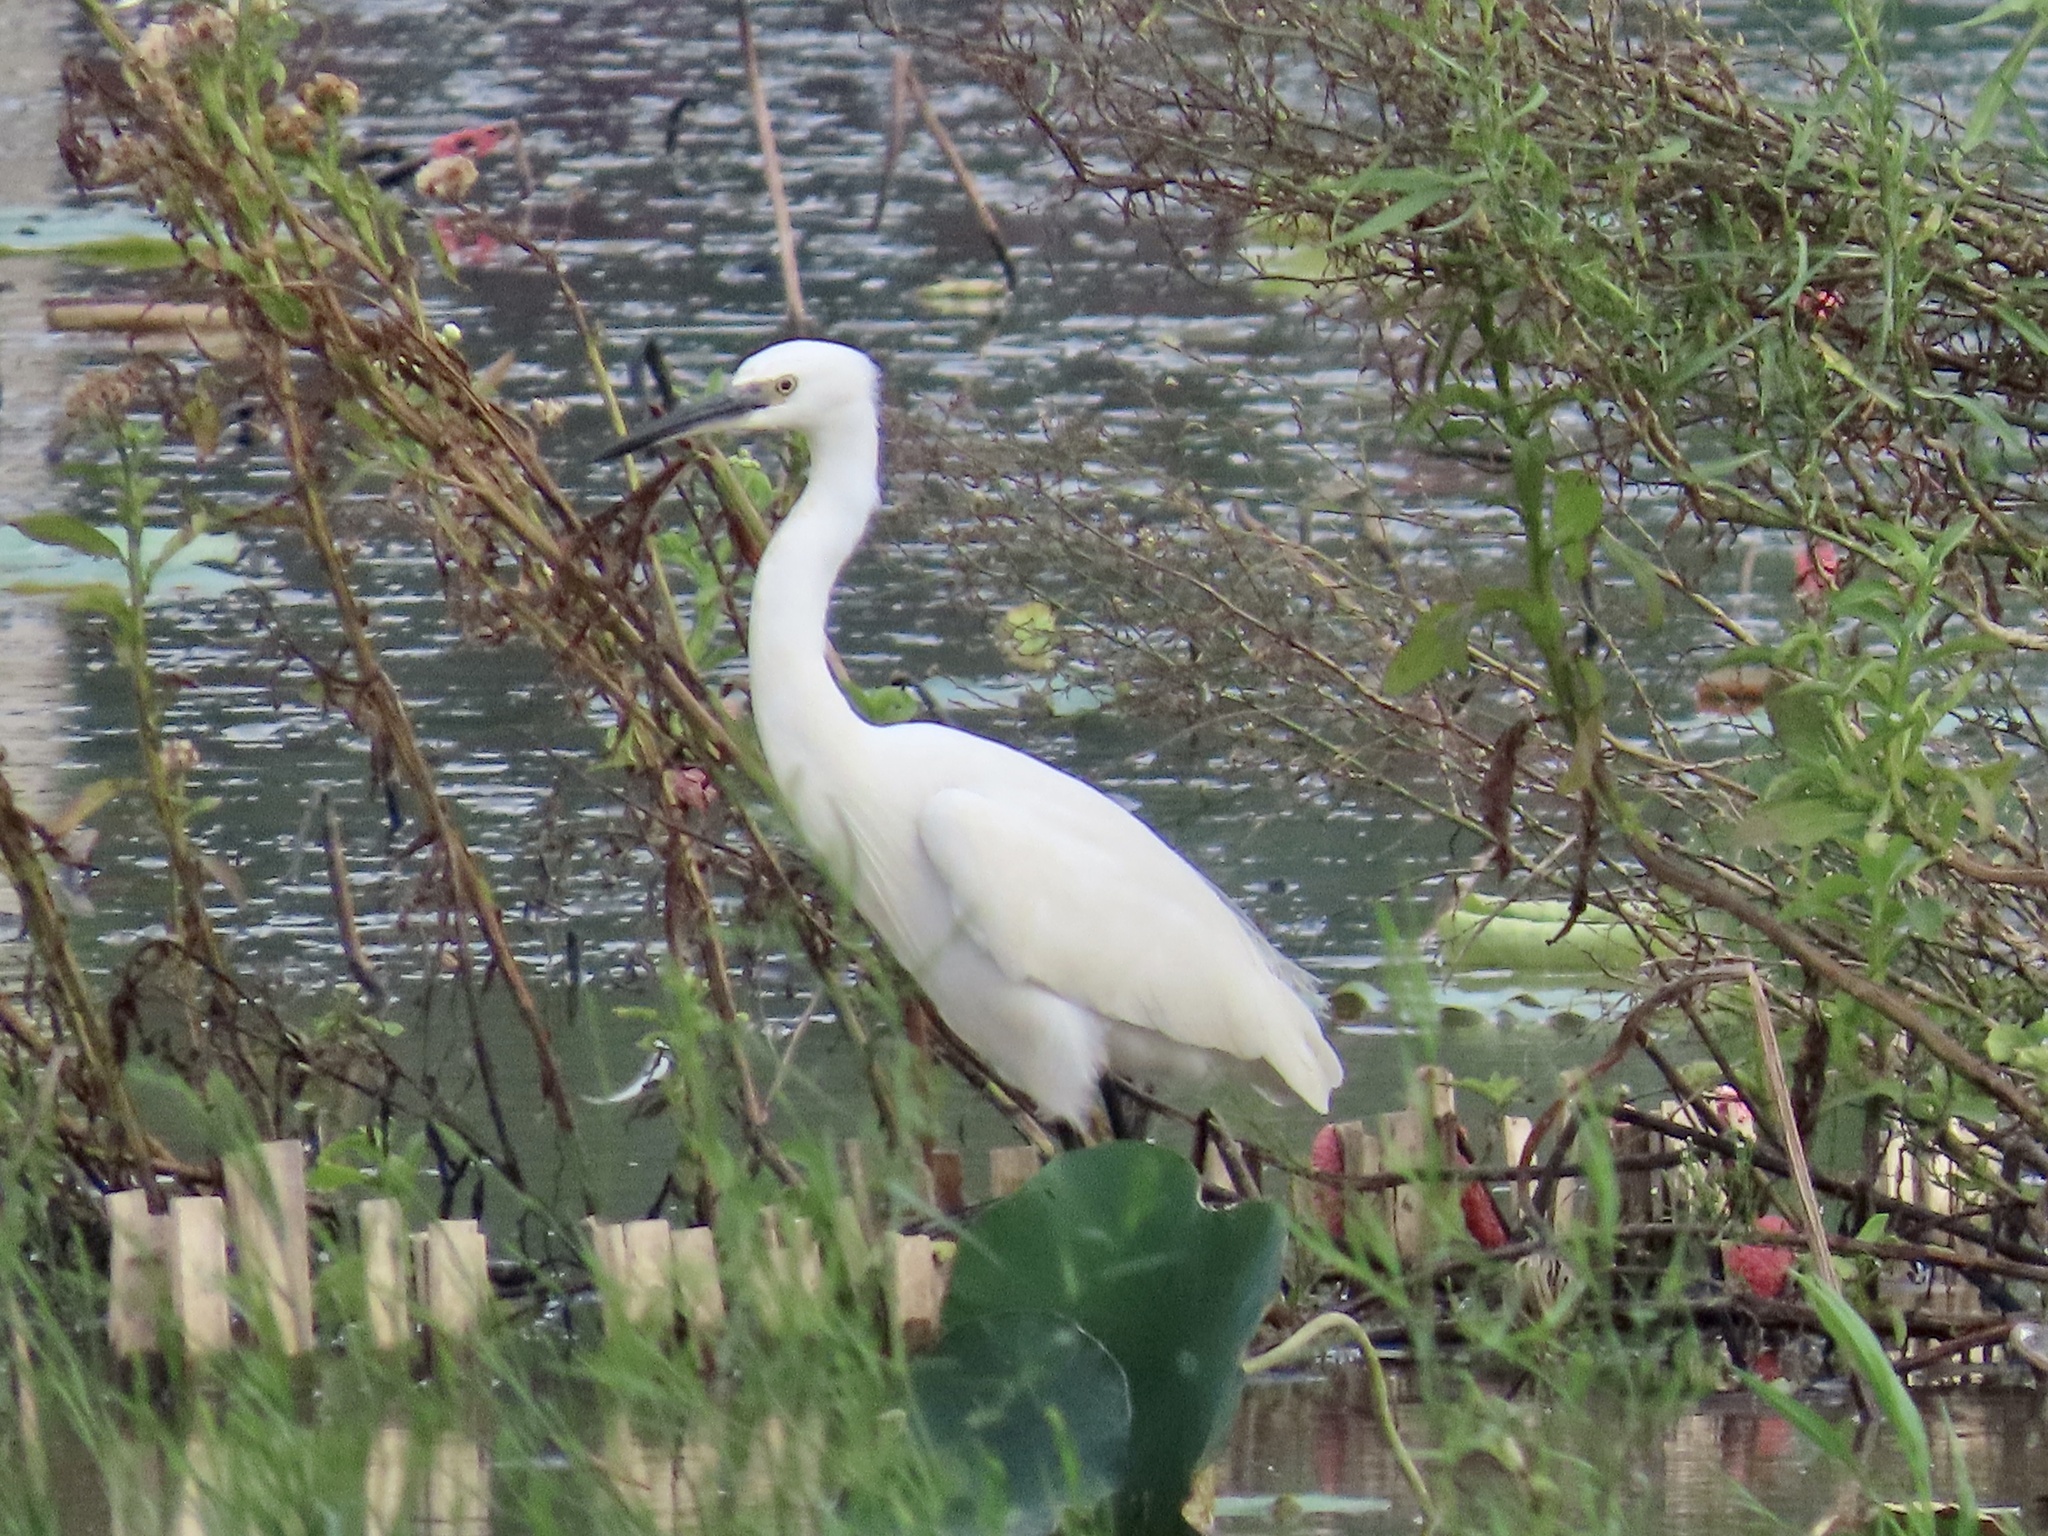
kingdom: Animalia
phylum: Chordata
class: Aves
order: Pelecaniformes
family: Ardeidae
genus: Egretta
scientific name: Egretta garzetta
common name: Little egret
